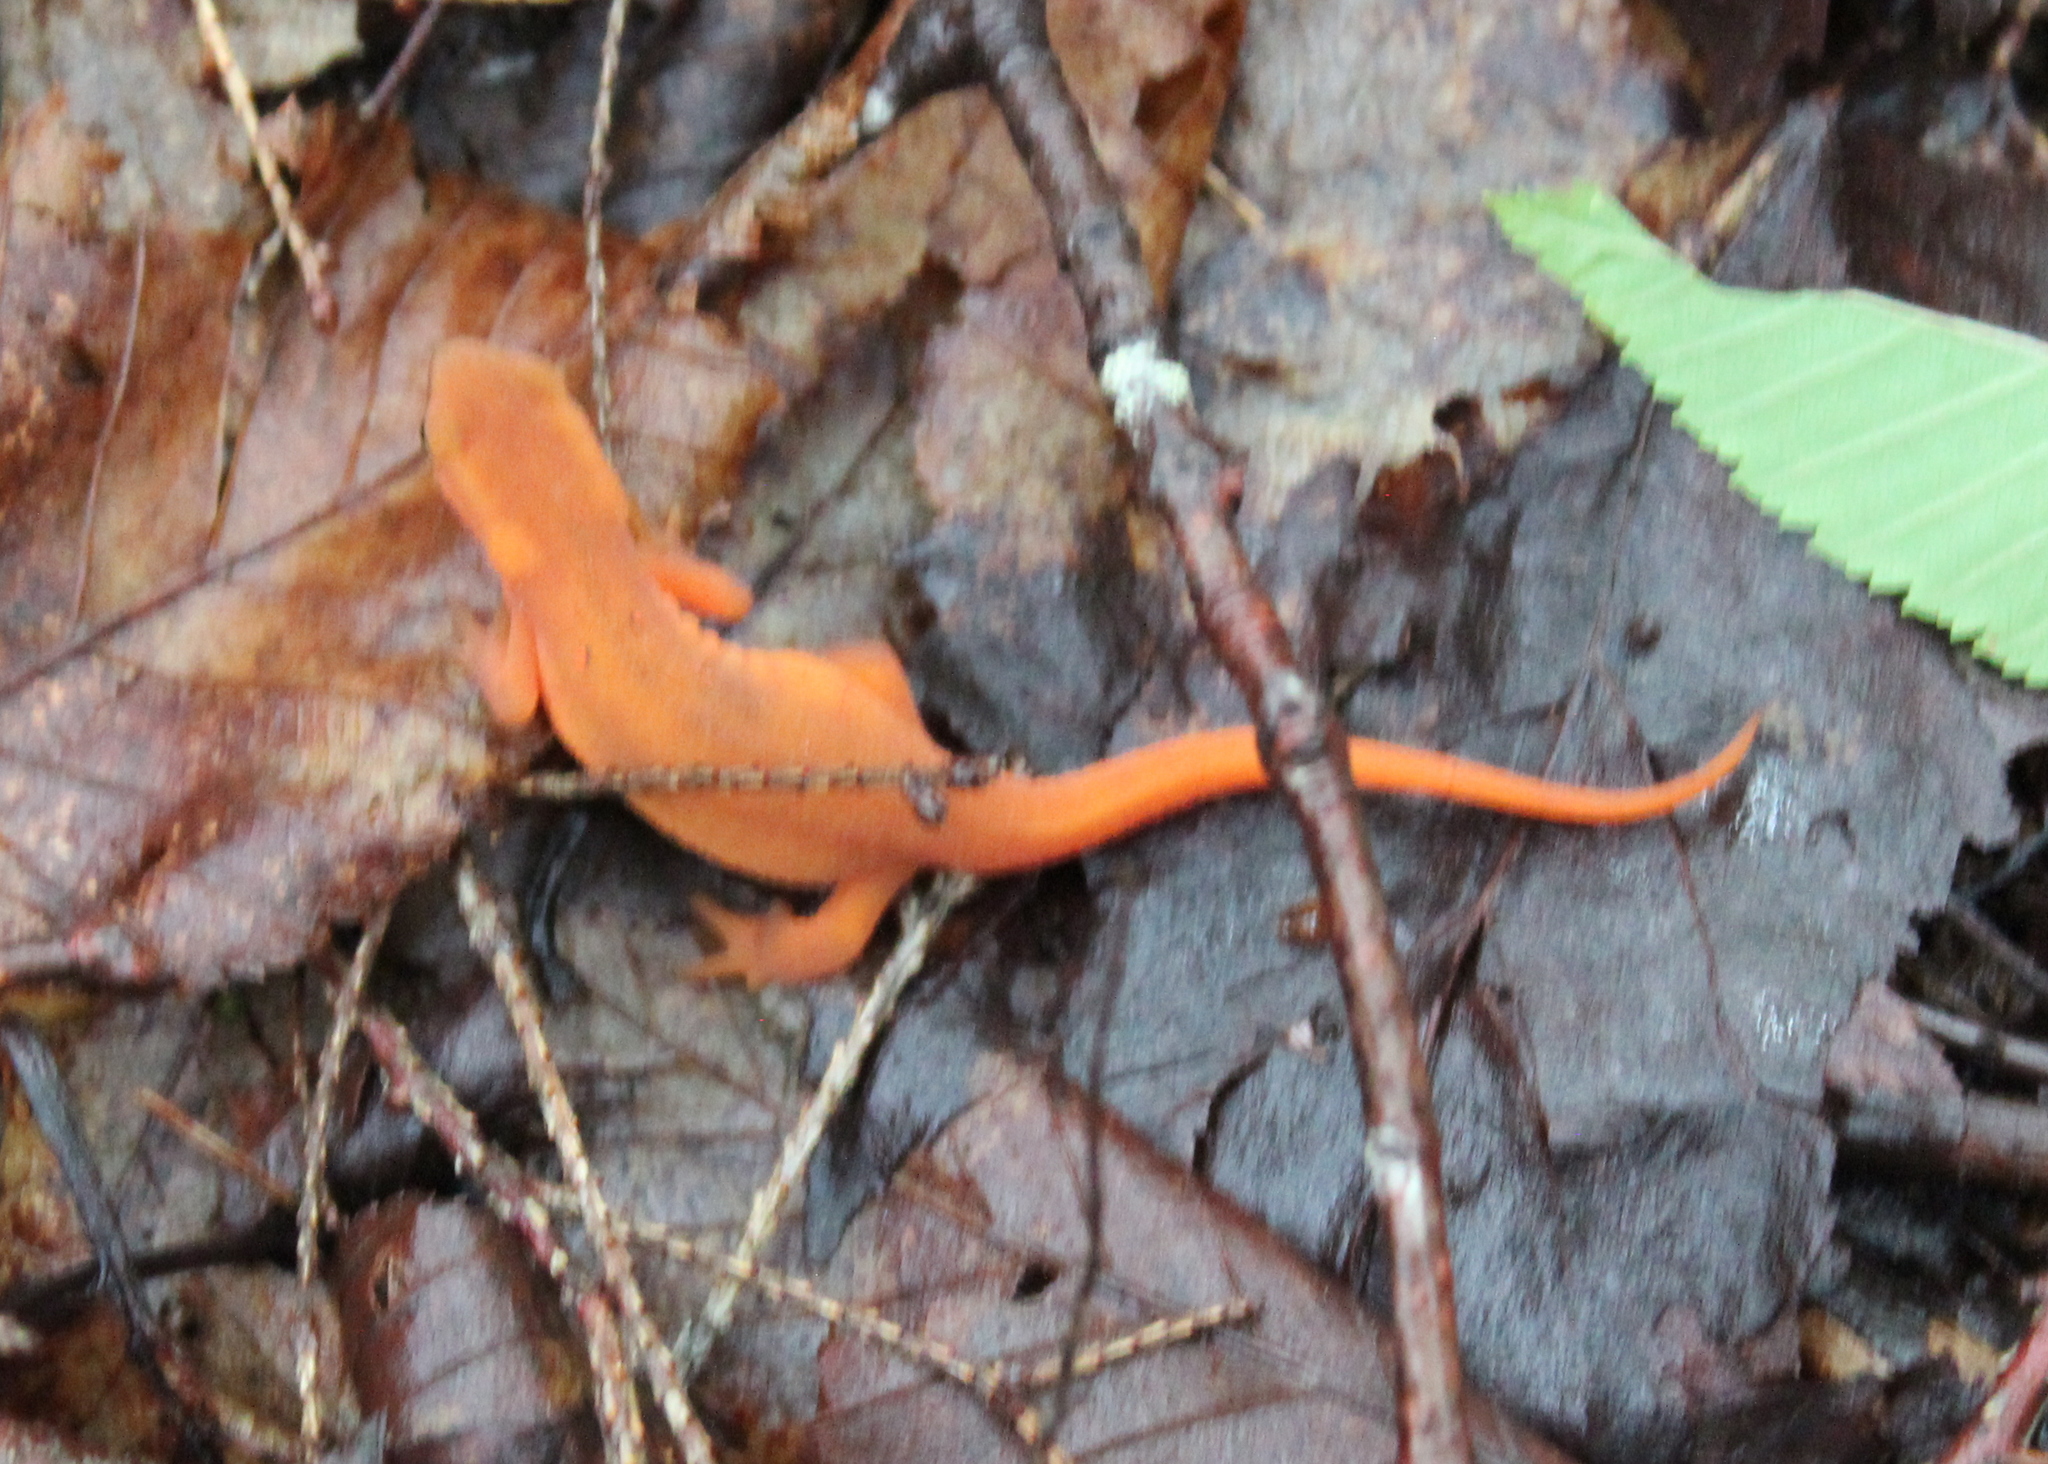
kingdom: Animalia
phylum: Chordata
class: Amphibia
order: Caudata
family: Salamandridae
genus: Notophthalmus
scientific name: Notophthalmus viridescens
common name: Eastern newt
